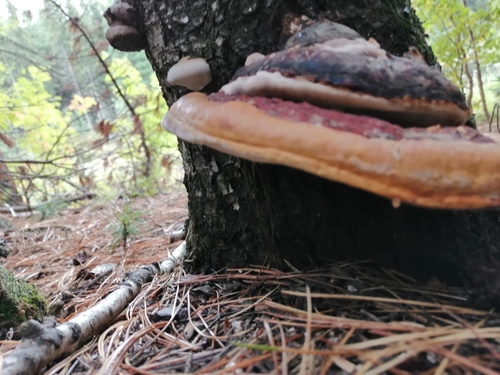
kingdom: Fungi
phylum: Basidiomycota
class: Agaricomycetes
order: Polyporales
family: Fomitopsidaceae
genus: Fomitopsis
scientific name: Fomitopsis pinicola
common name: Red-belted bracket
